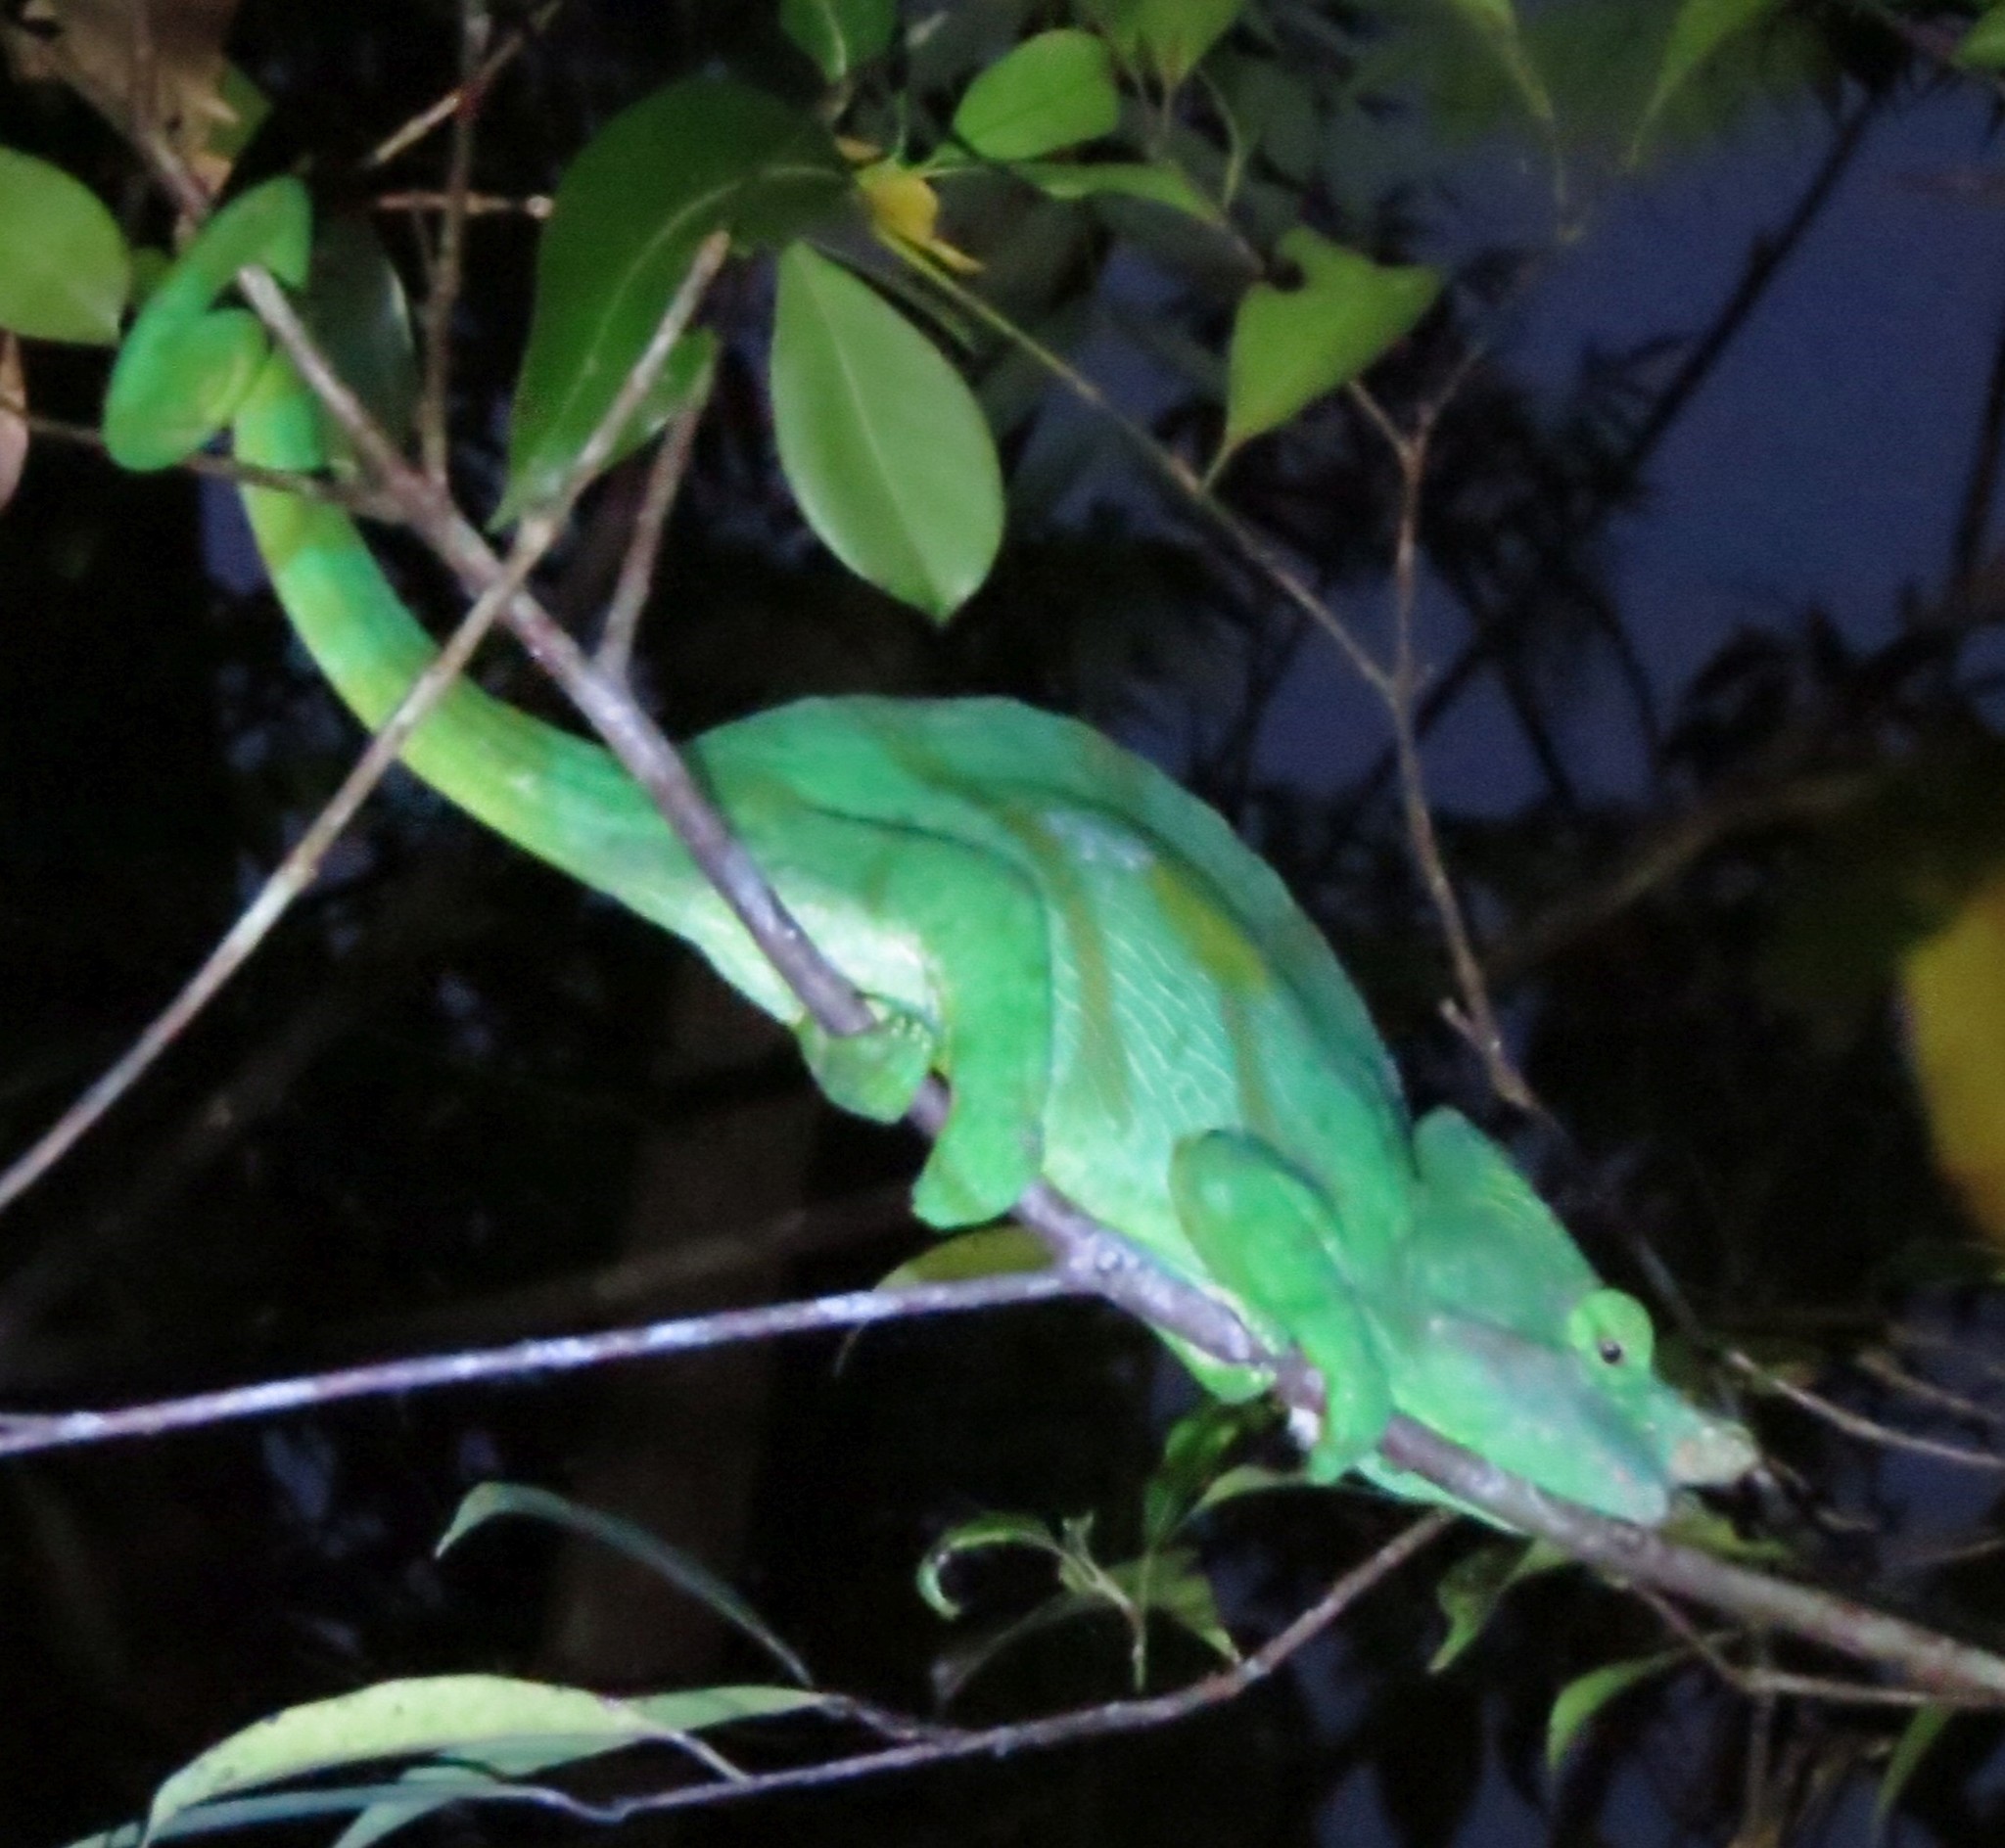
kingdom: Animalia
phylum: Chordata
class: Squamata
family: Chamaeleonidae
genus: Calumma
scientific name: Calumma parsonii
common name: Parson's chameleon
